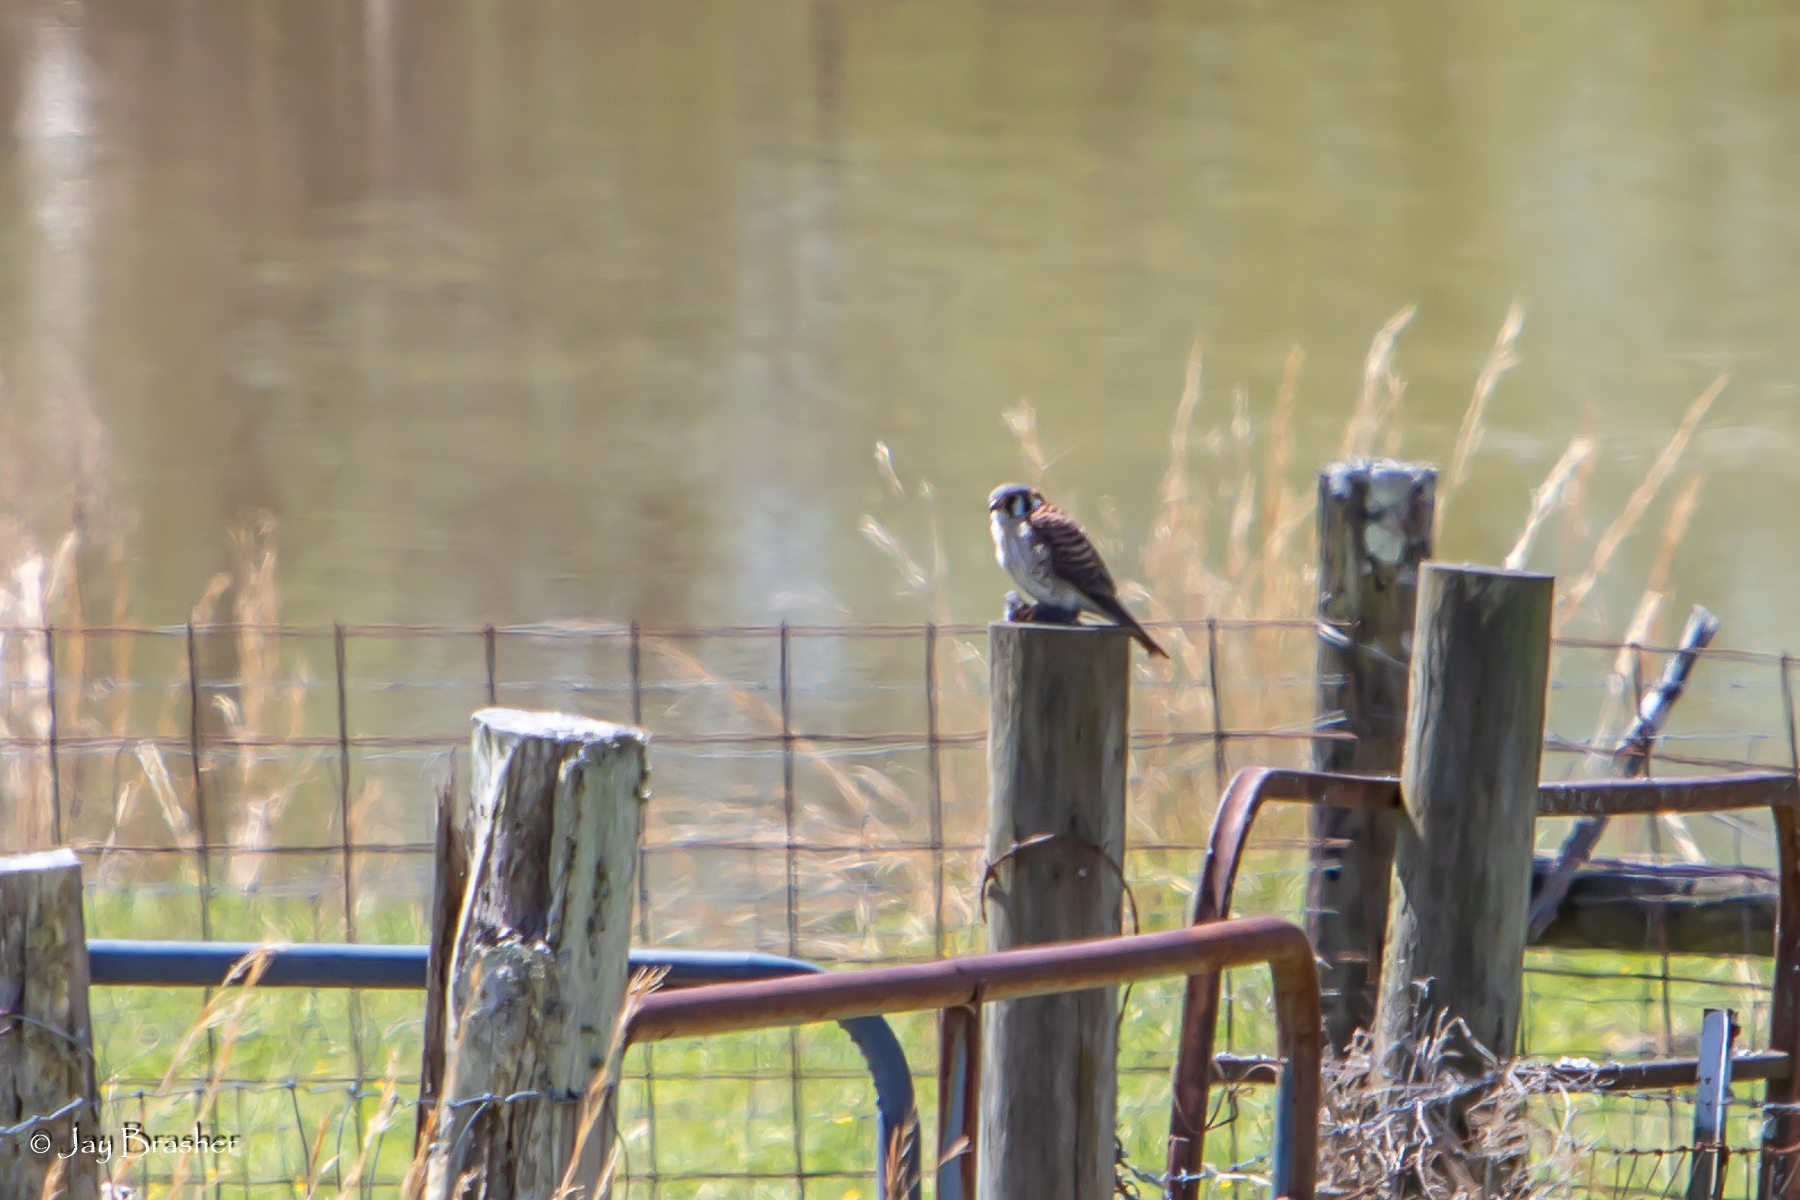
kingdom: Animalia
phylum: Chordata
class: Aves
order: Falconiformes
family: Falconidae
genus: Falco
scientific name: Falco sparverius
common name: American kestrel
